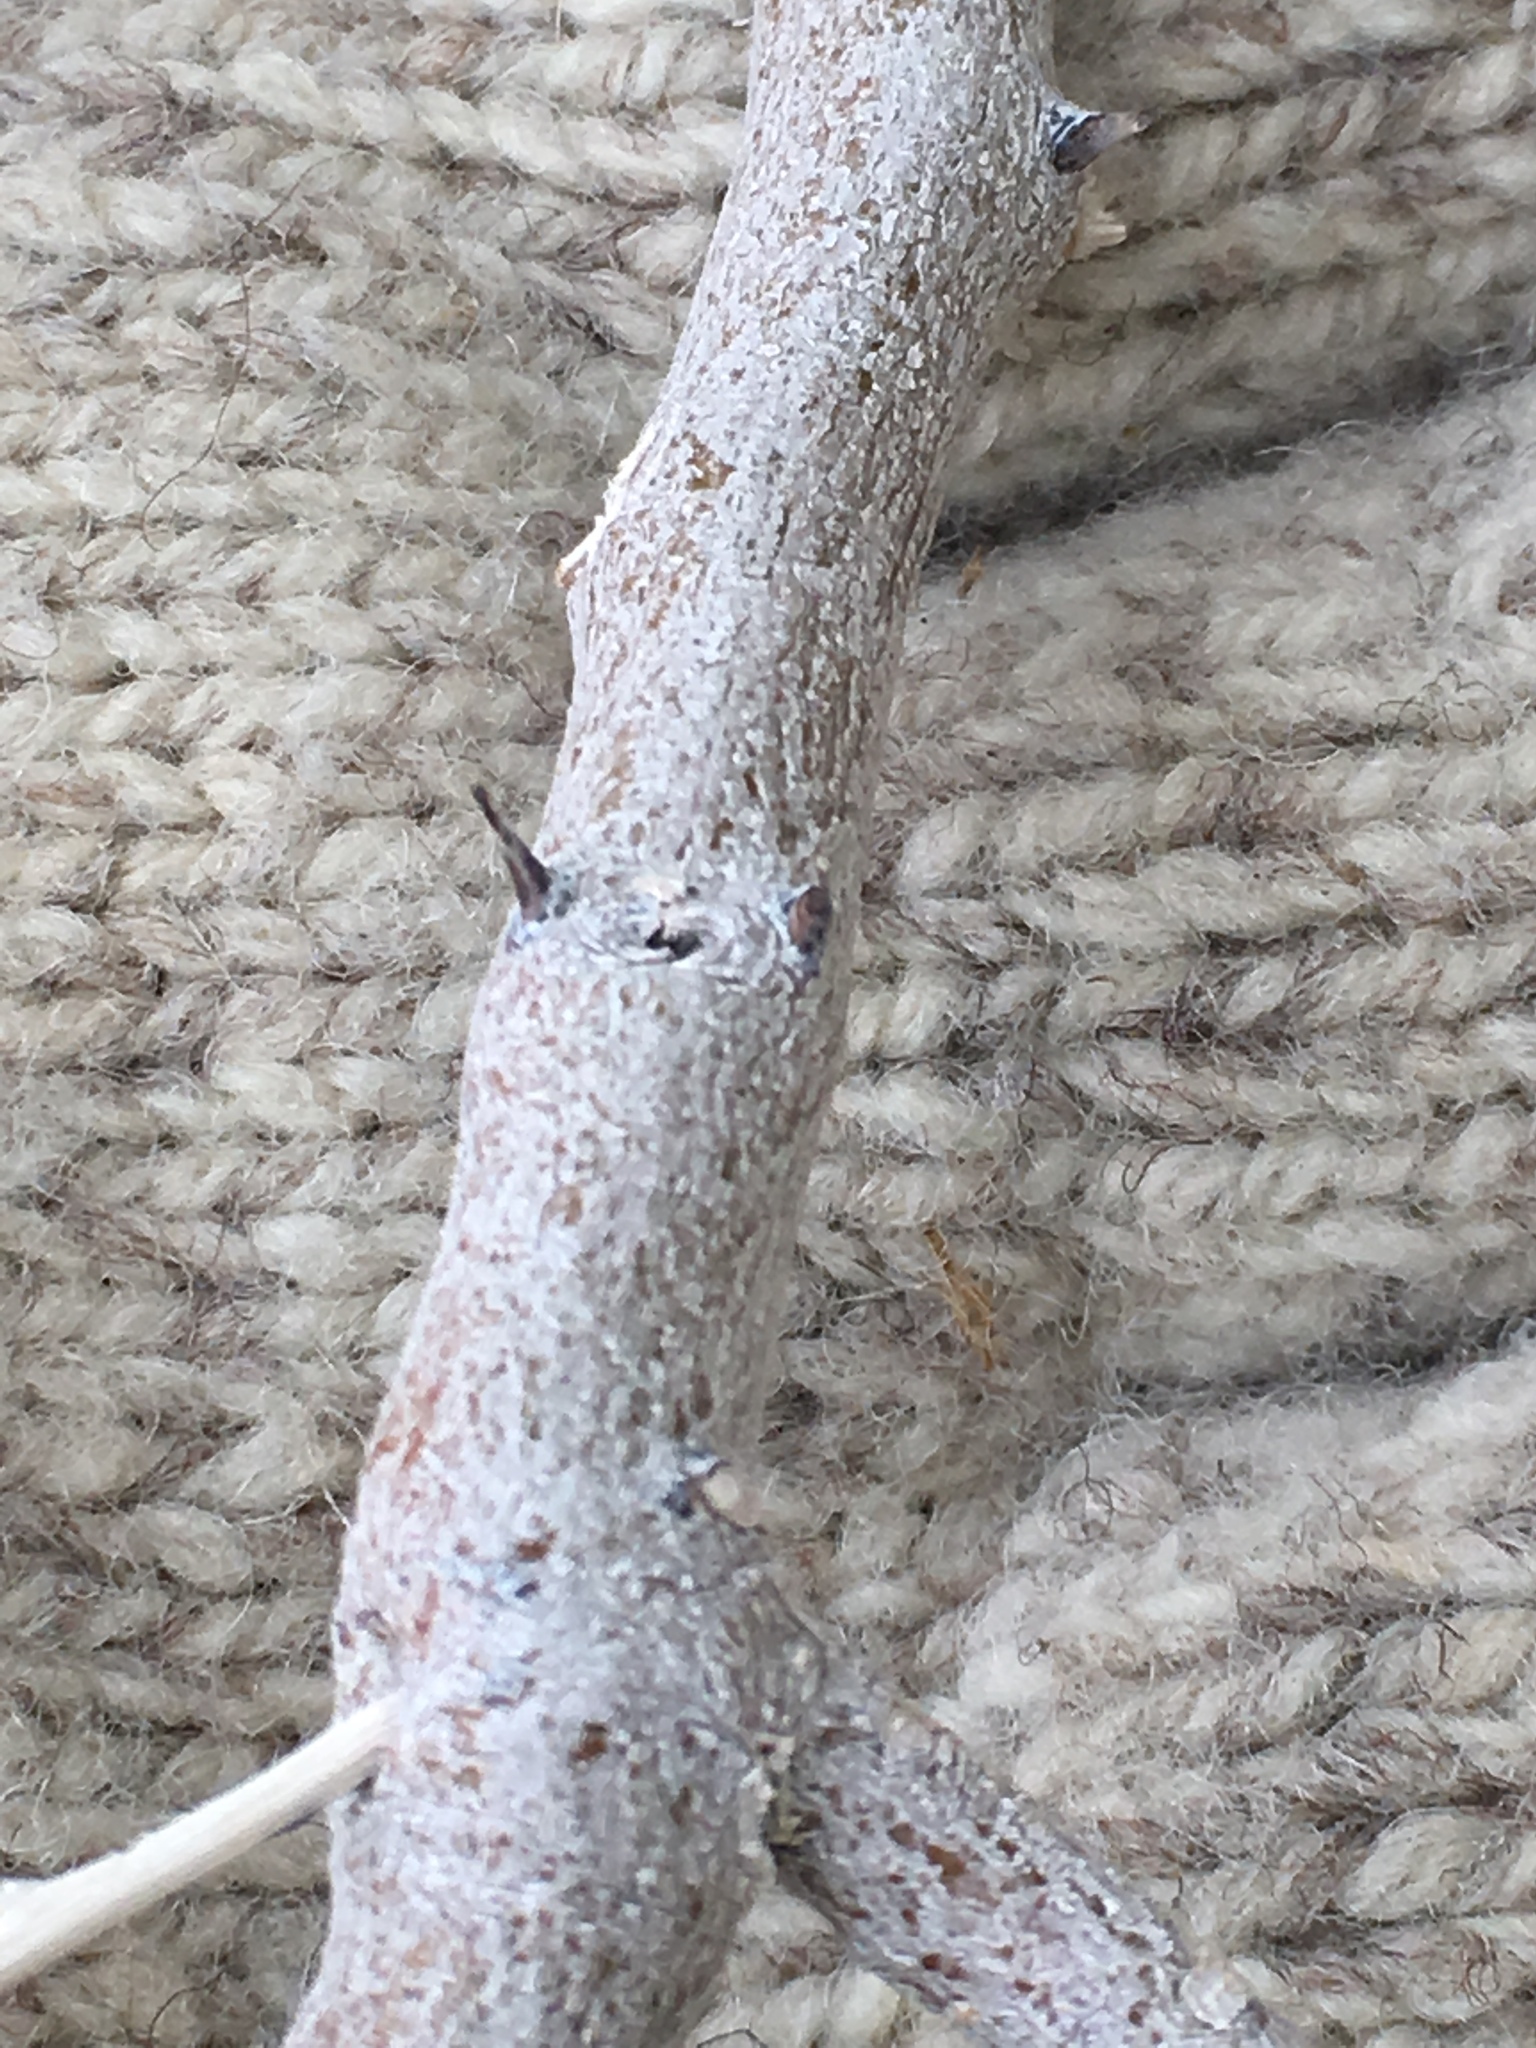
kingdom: Plantae
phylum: Tracheophyta
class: Magnoliopsida
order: Fabales
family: Fabaceae
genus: Olneya
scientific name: Olneya tesota
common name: Desert ironwood
